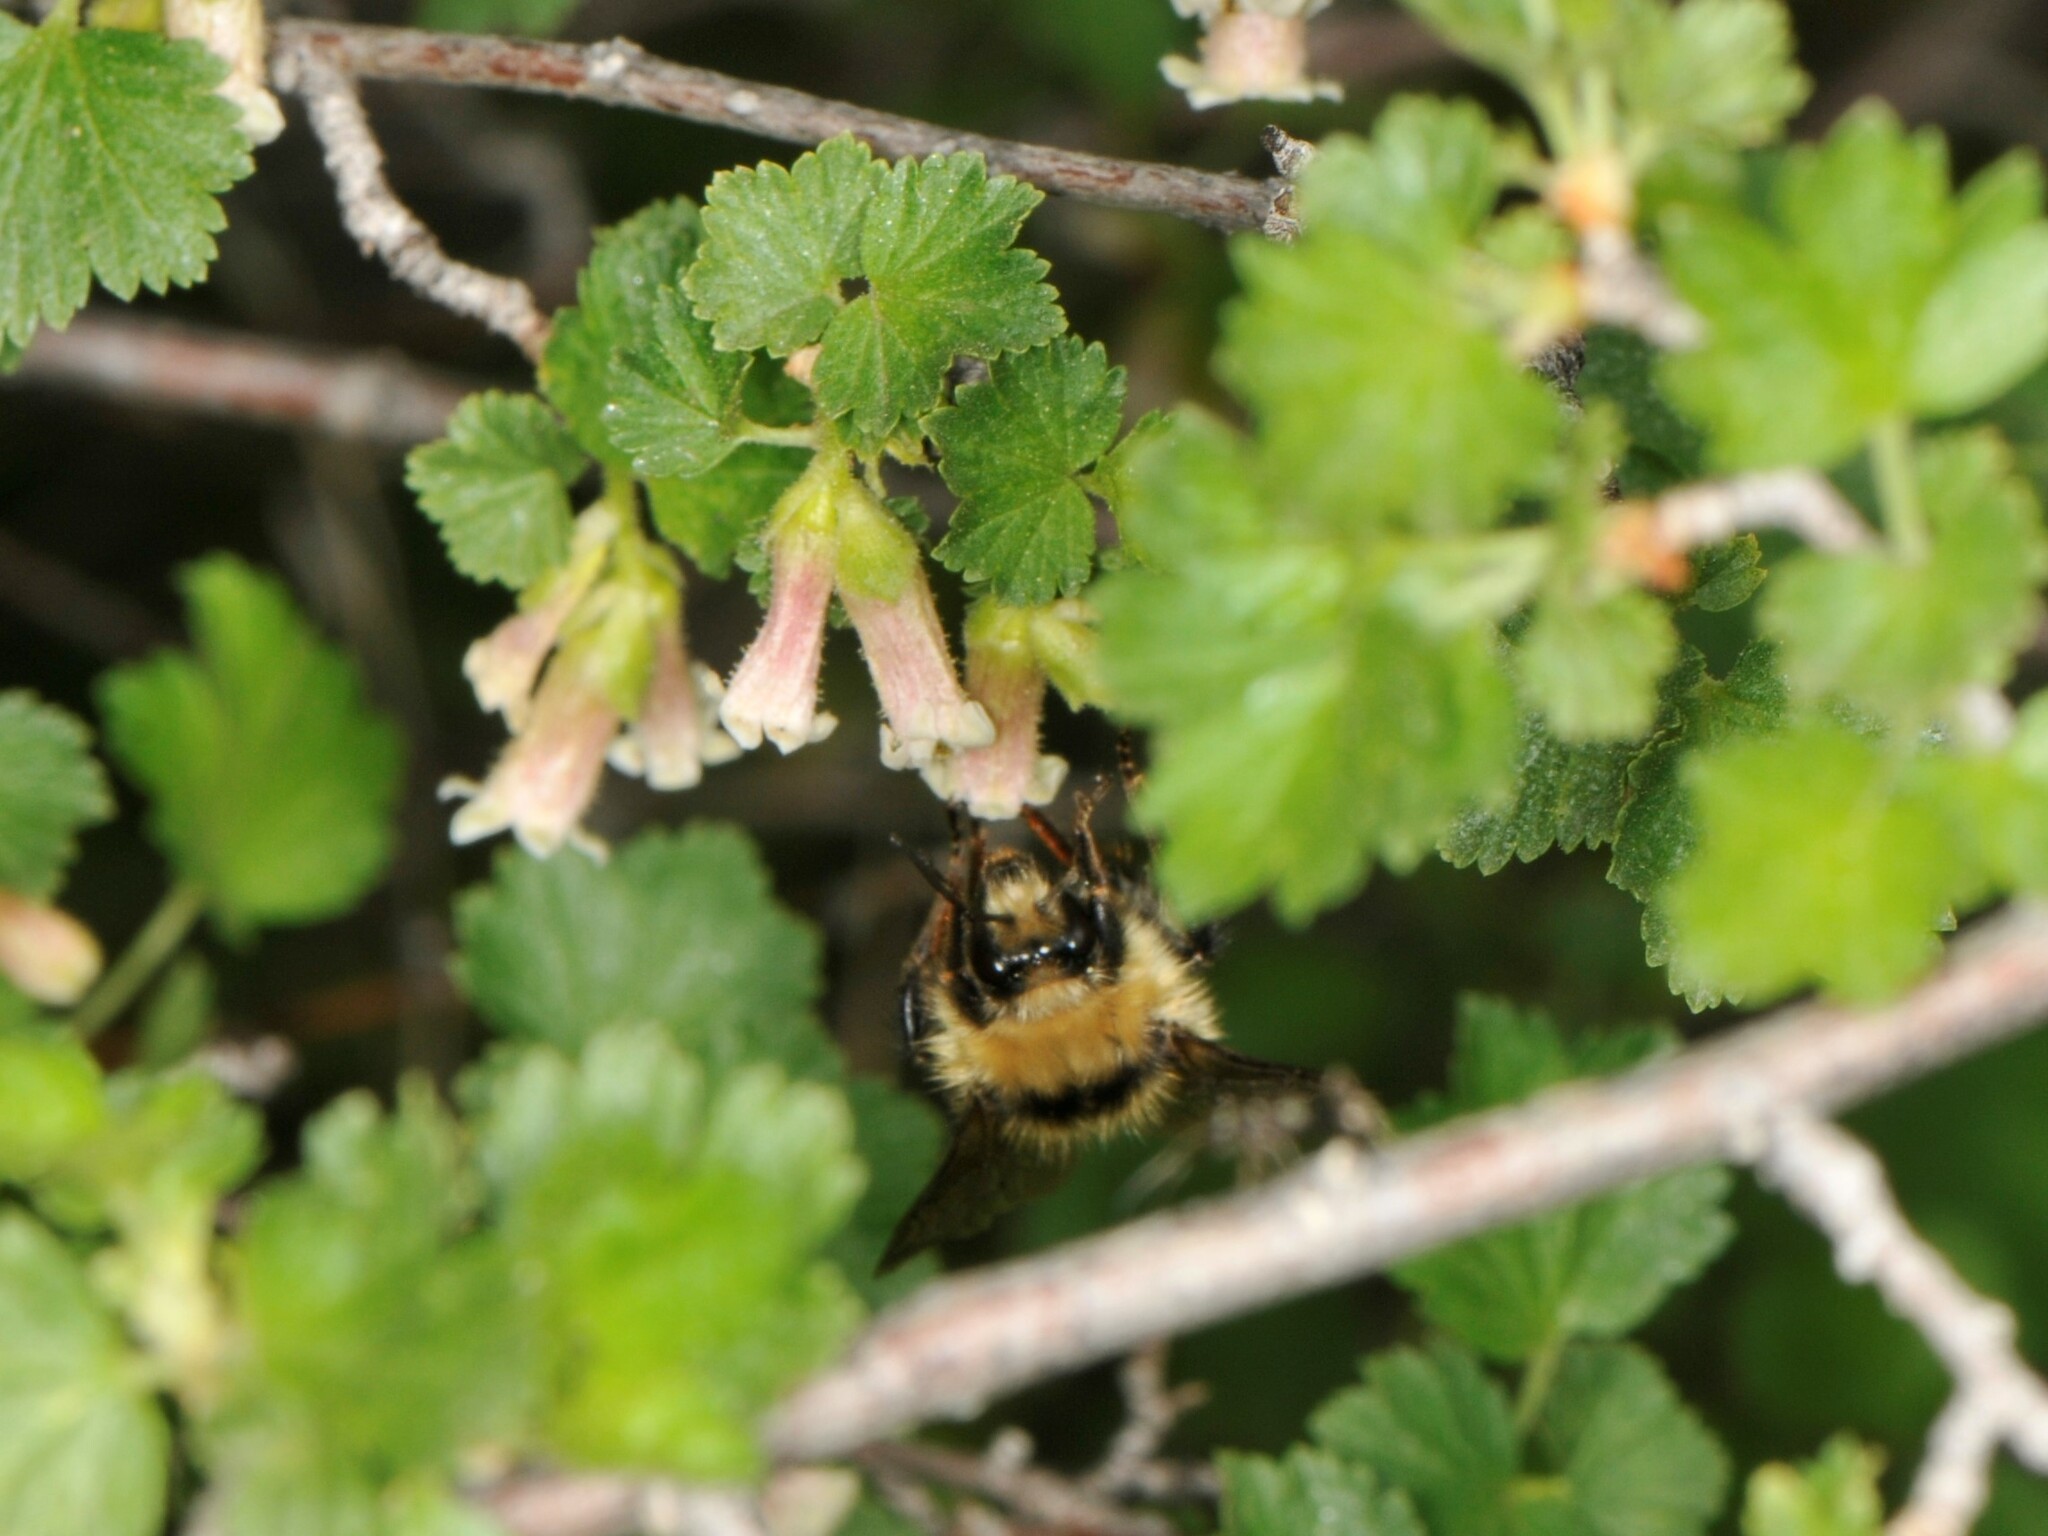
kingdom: Animalia
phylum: Arthropoda
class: Insecta
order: Hymenoptera
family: Apidae
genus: Pyrobombus
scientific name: Pyrobombus
